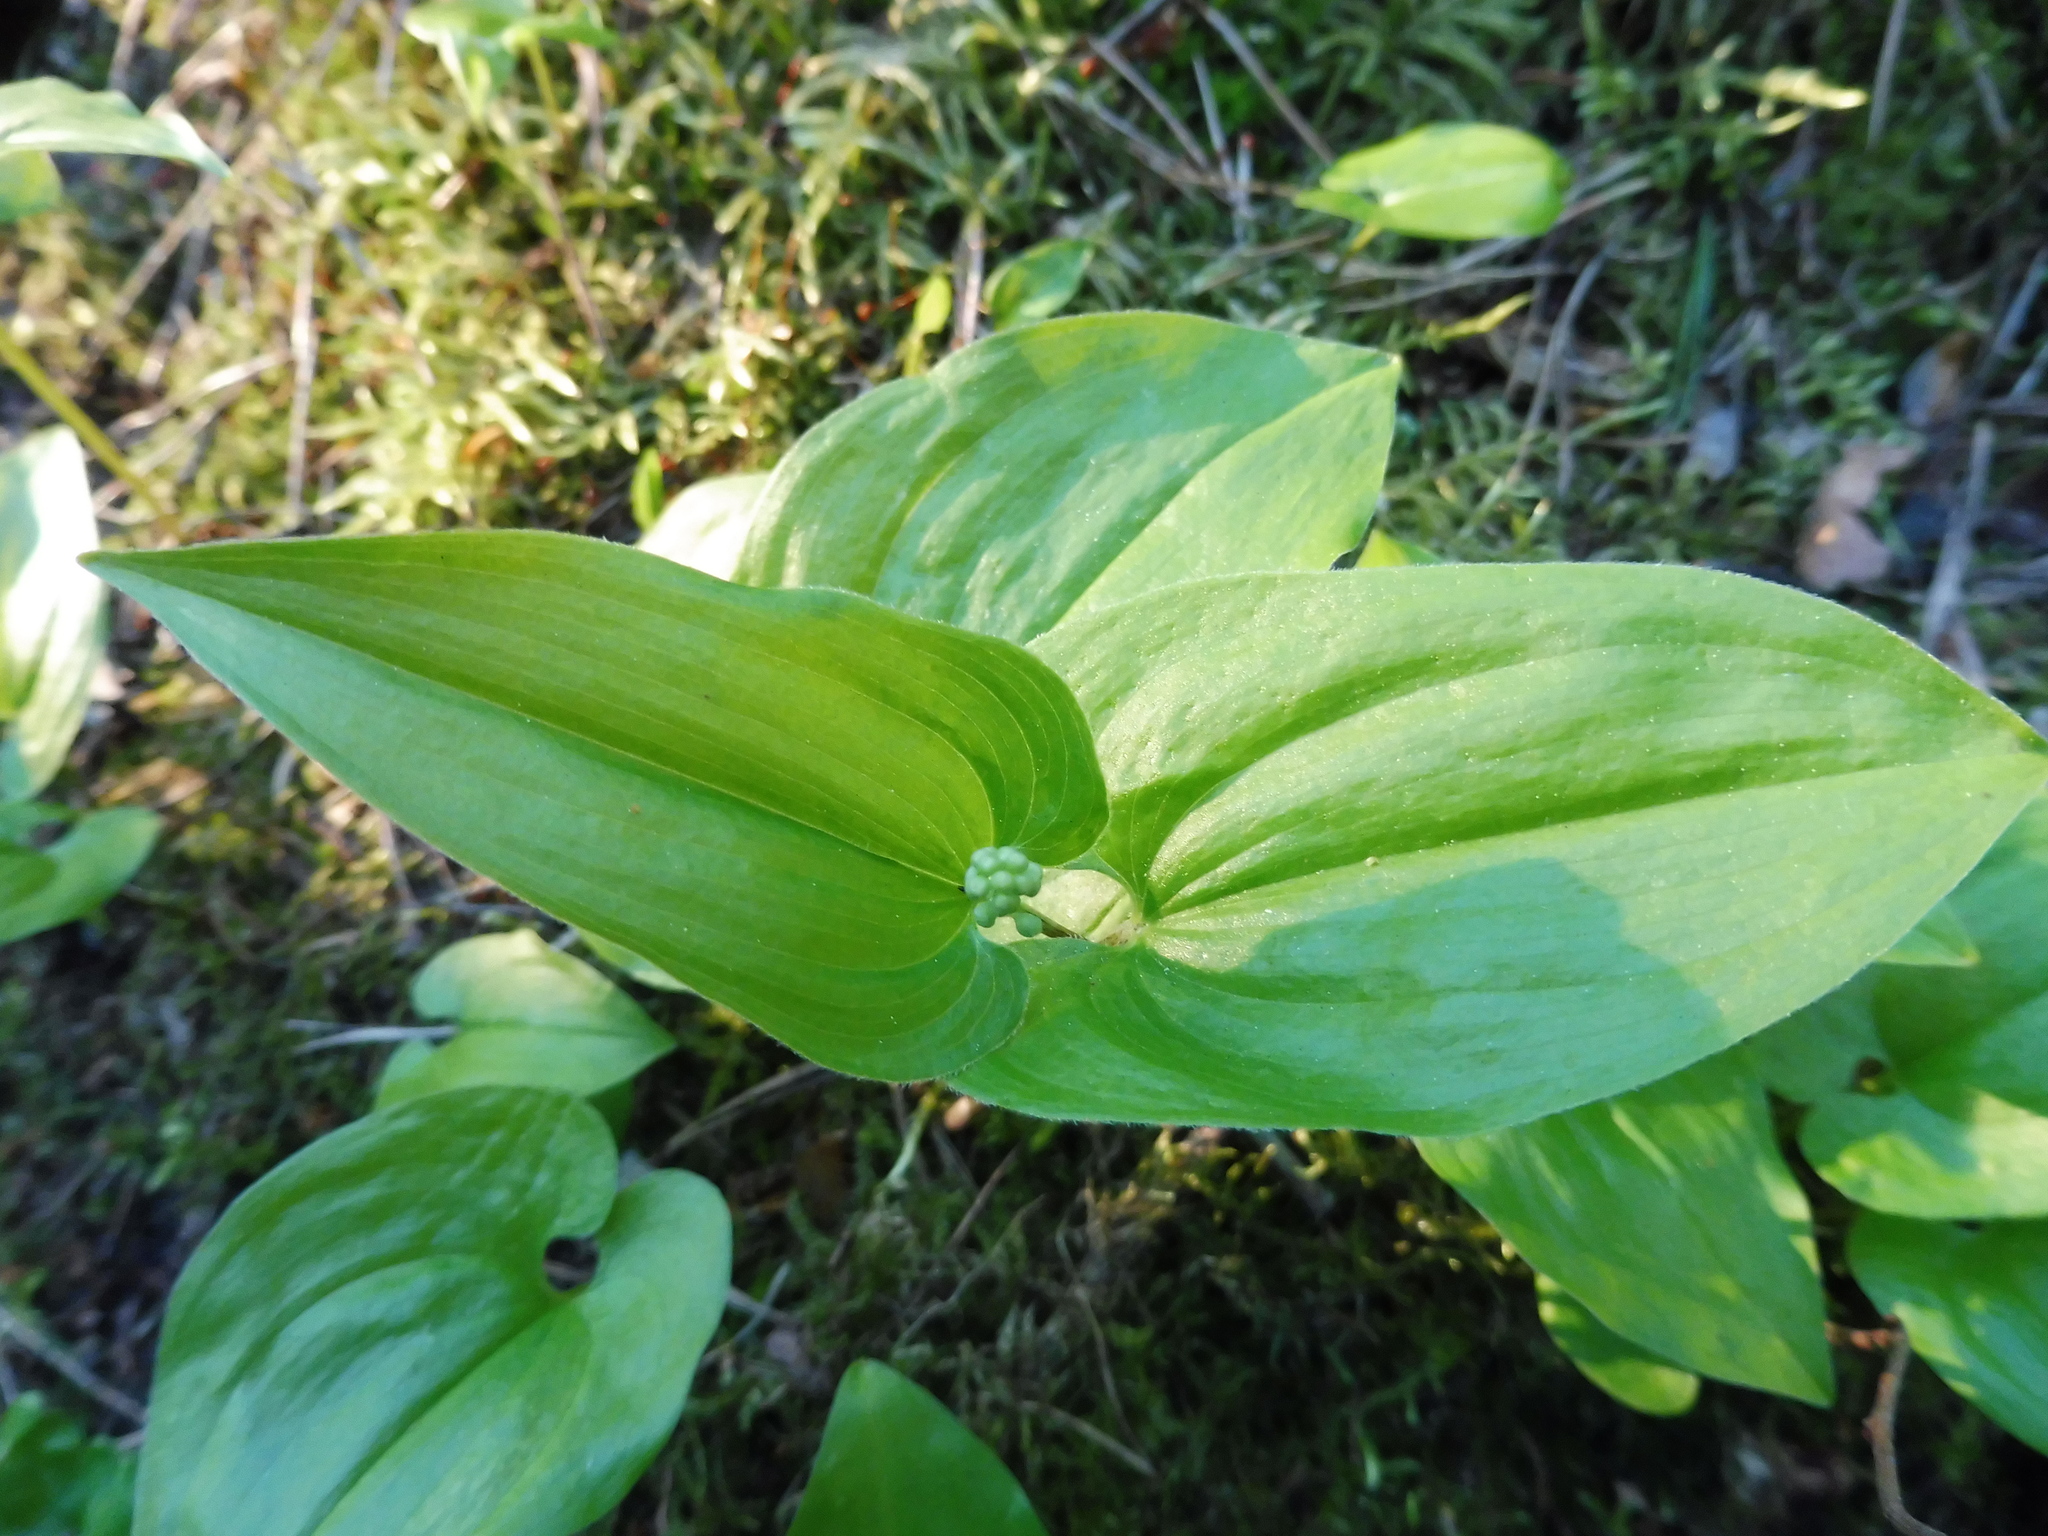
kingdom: Plantae
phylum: Tracheophyta
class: Liliopsida
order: Asparagales
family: Asparagaceae
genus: Maianthemum
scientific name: Maianthemum bifolium
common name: May lily
